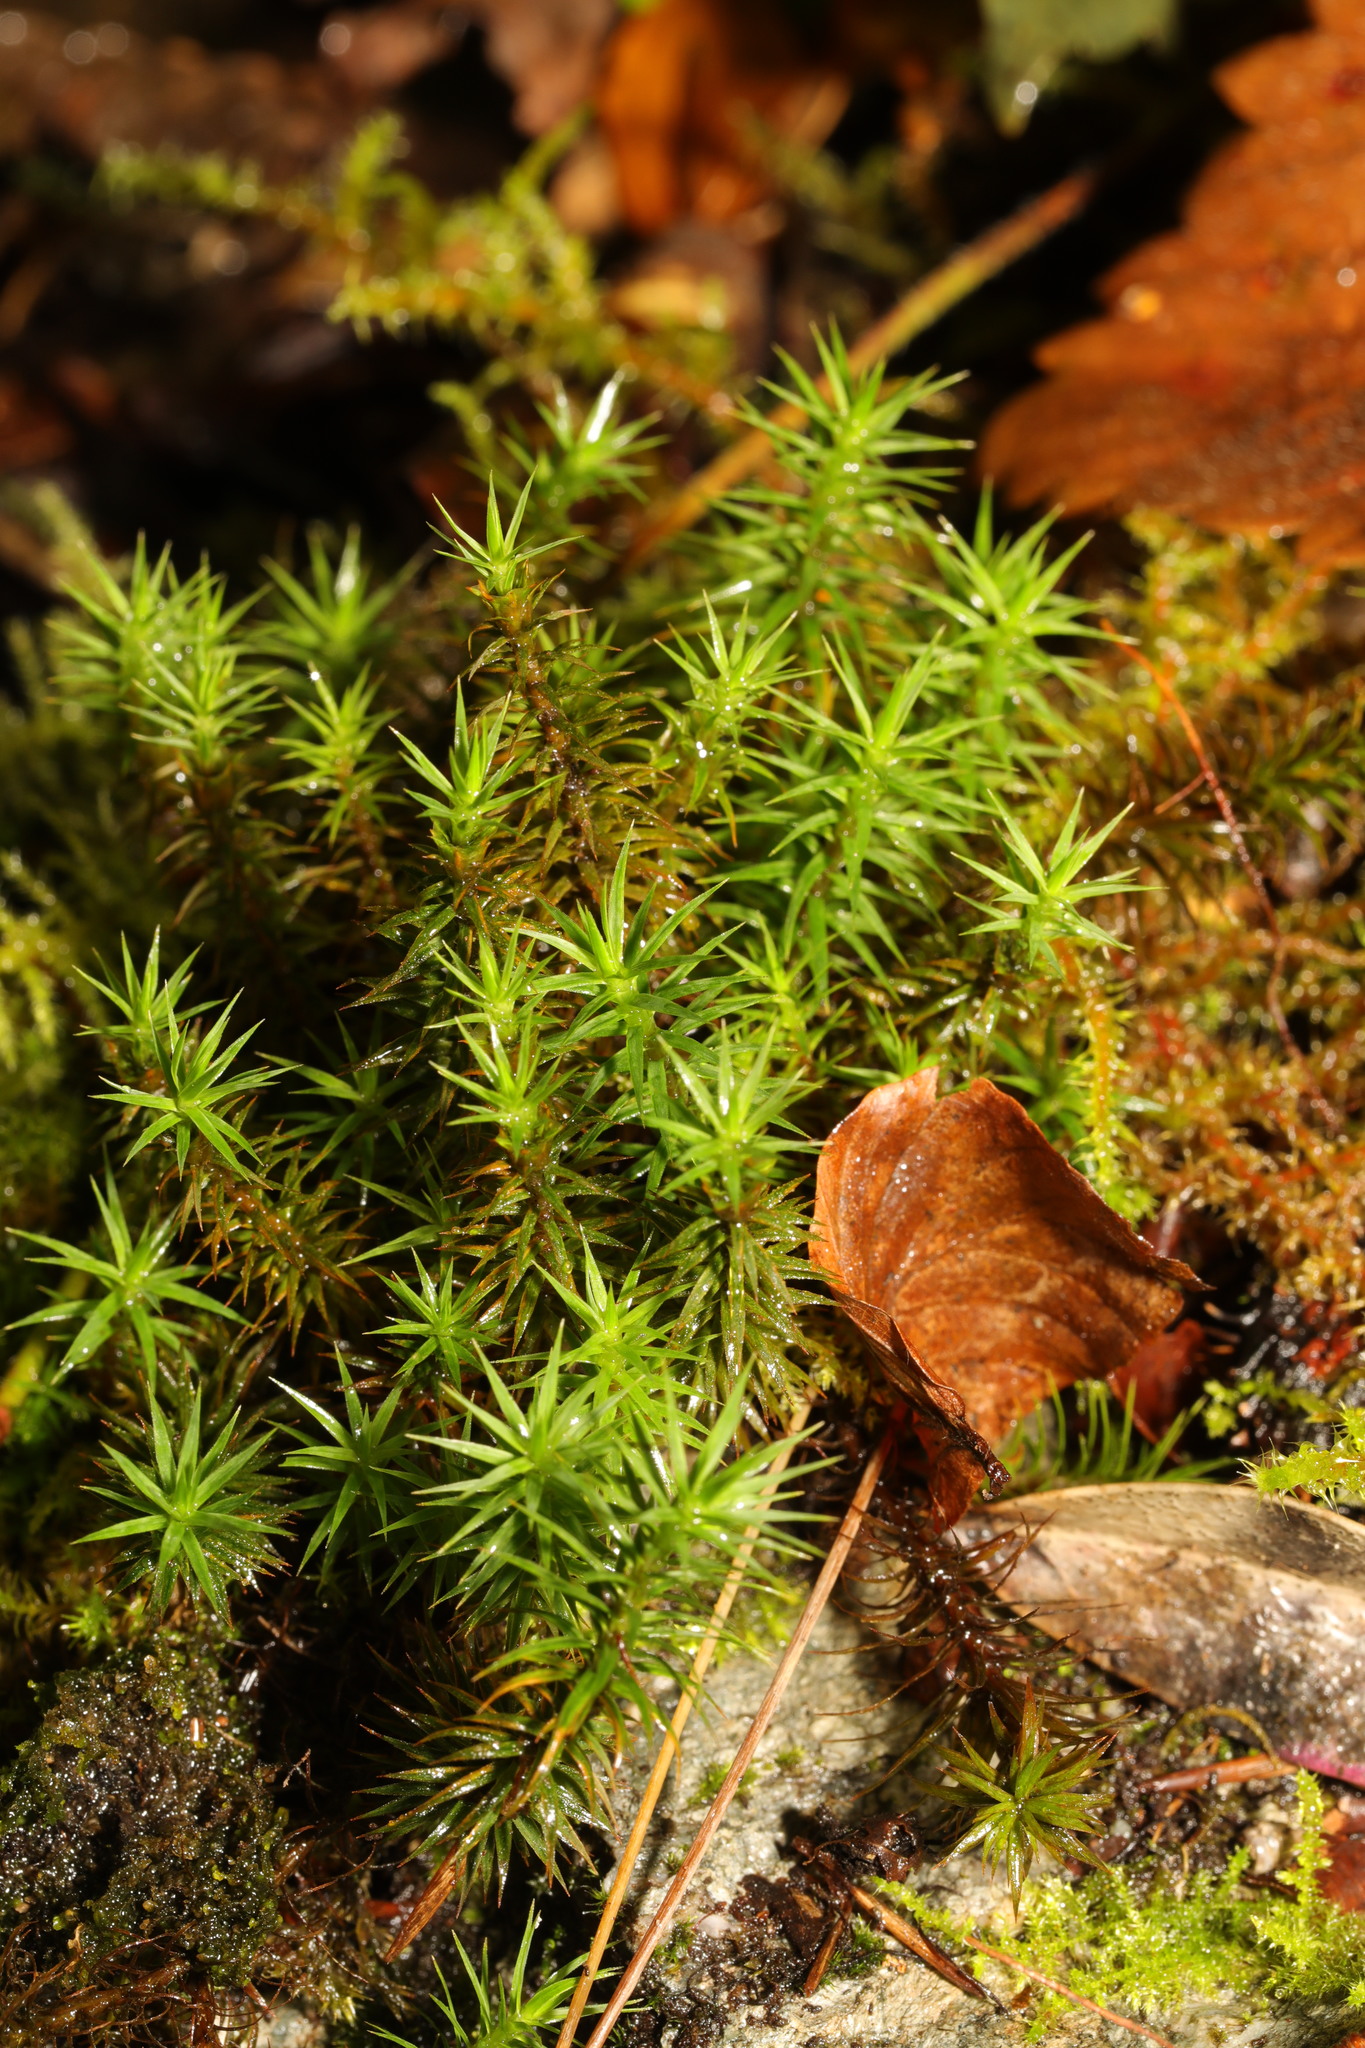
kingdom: Plantae
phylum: Bryophyta
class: Polytrichopsida
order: Polytrichales
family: Polytrichaceae
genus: Polytrichum
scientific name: Polytrichum formosum
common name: Bank haircap moss
